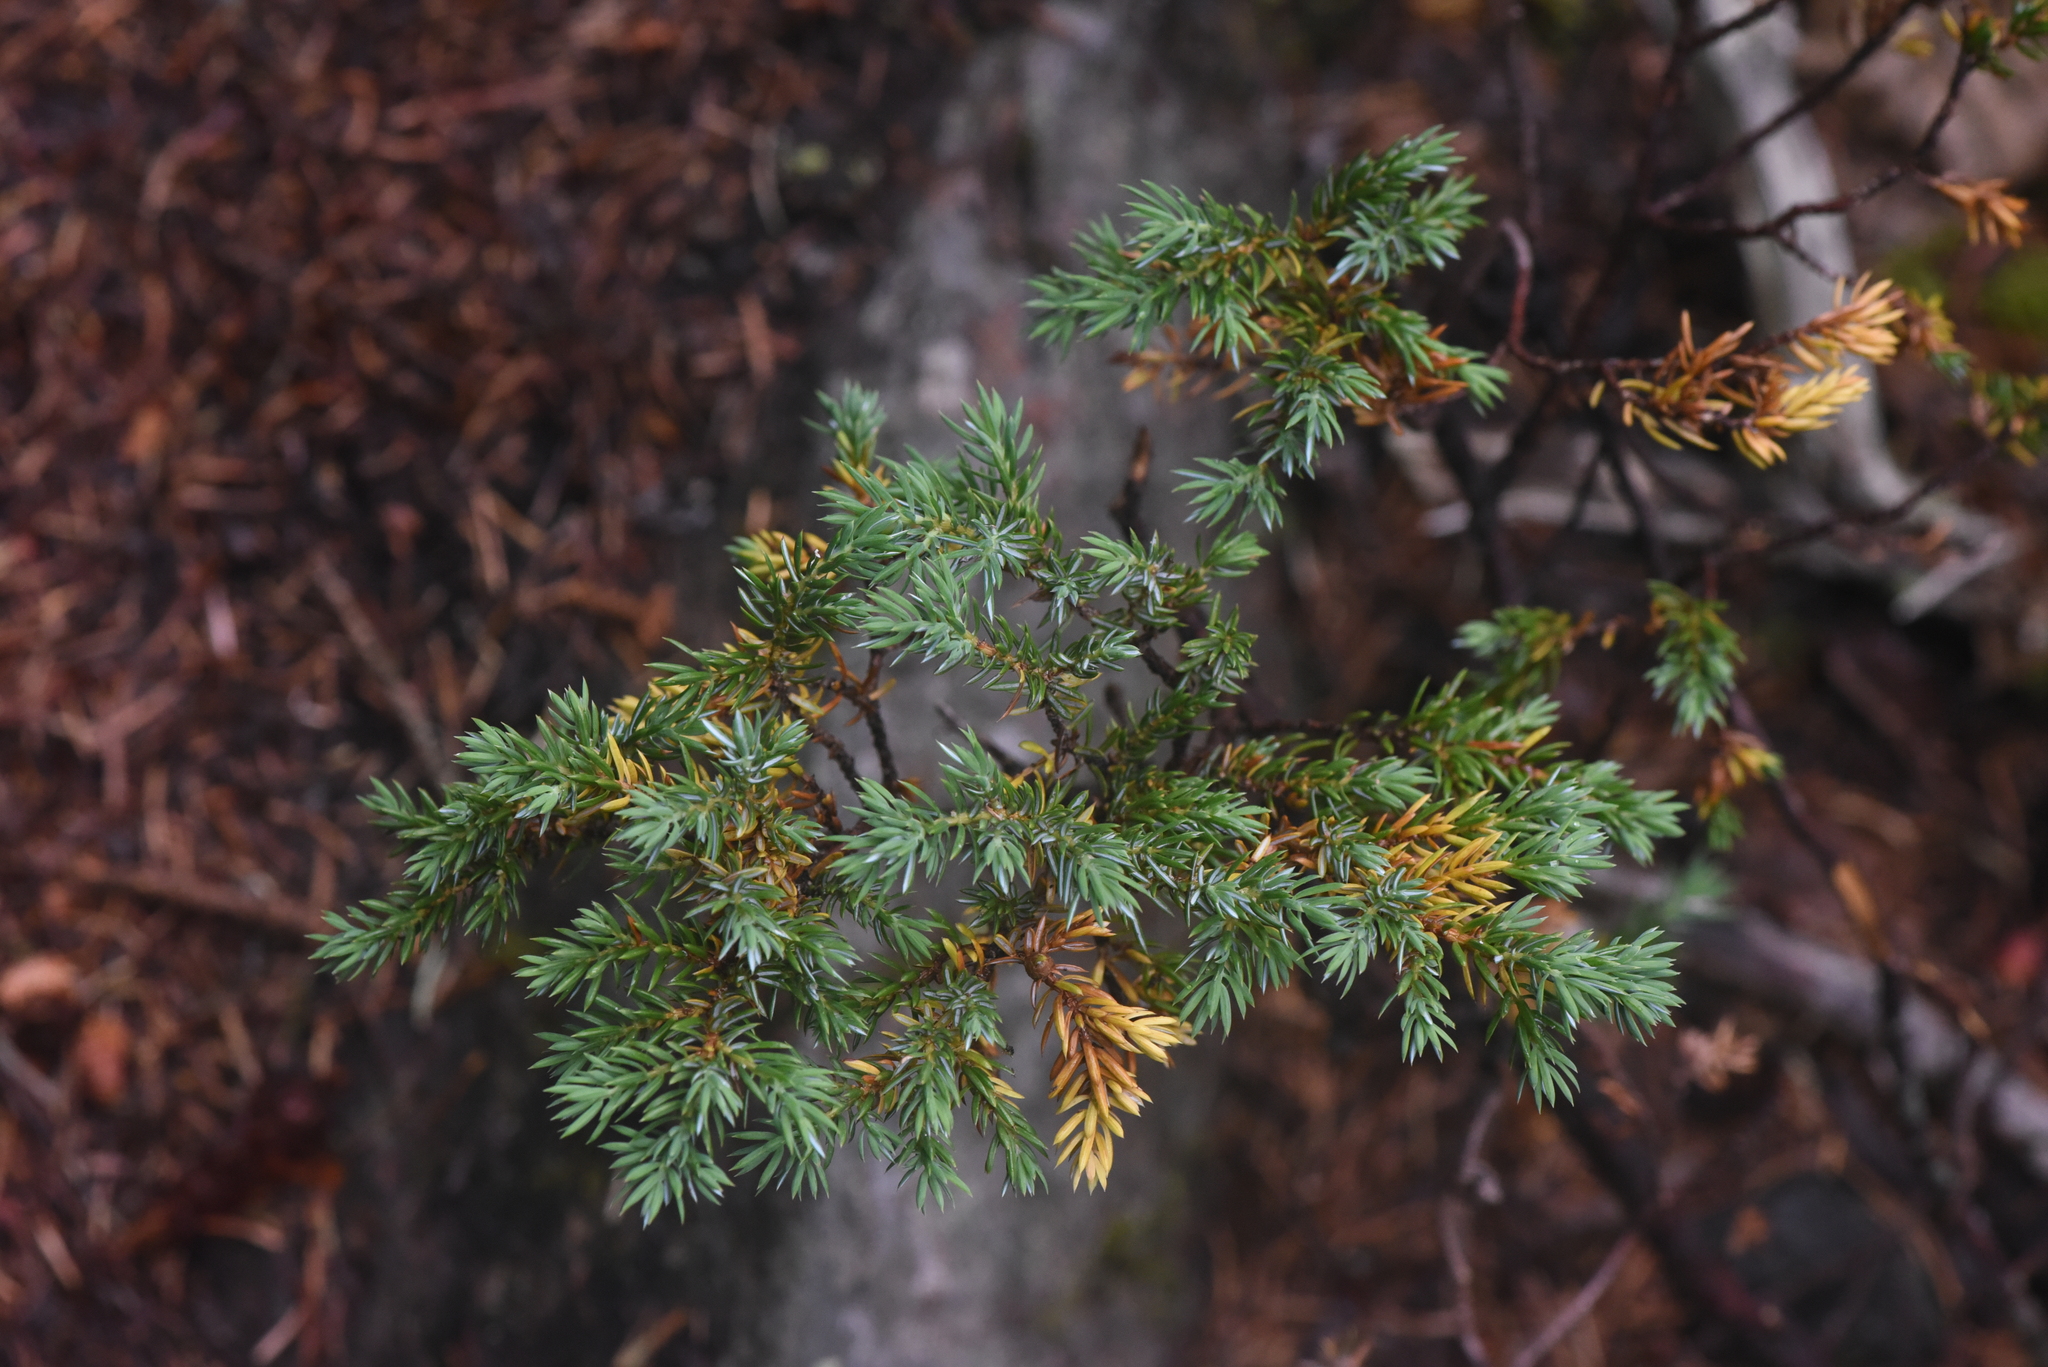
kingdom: Plantae
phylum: Tracheophyta
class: Pinopsida
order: Pinales
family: Cupressaceae
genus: Juniperus
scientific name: Juniperus communis
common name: Common juniper
